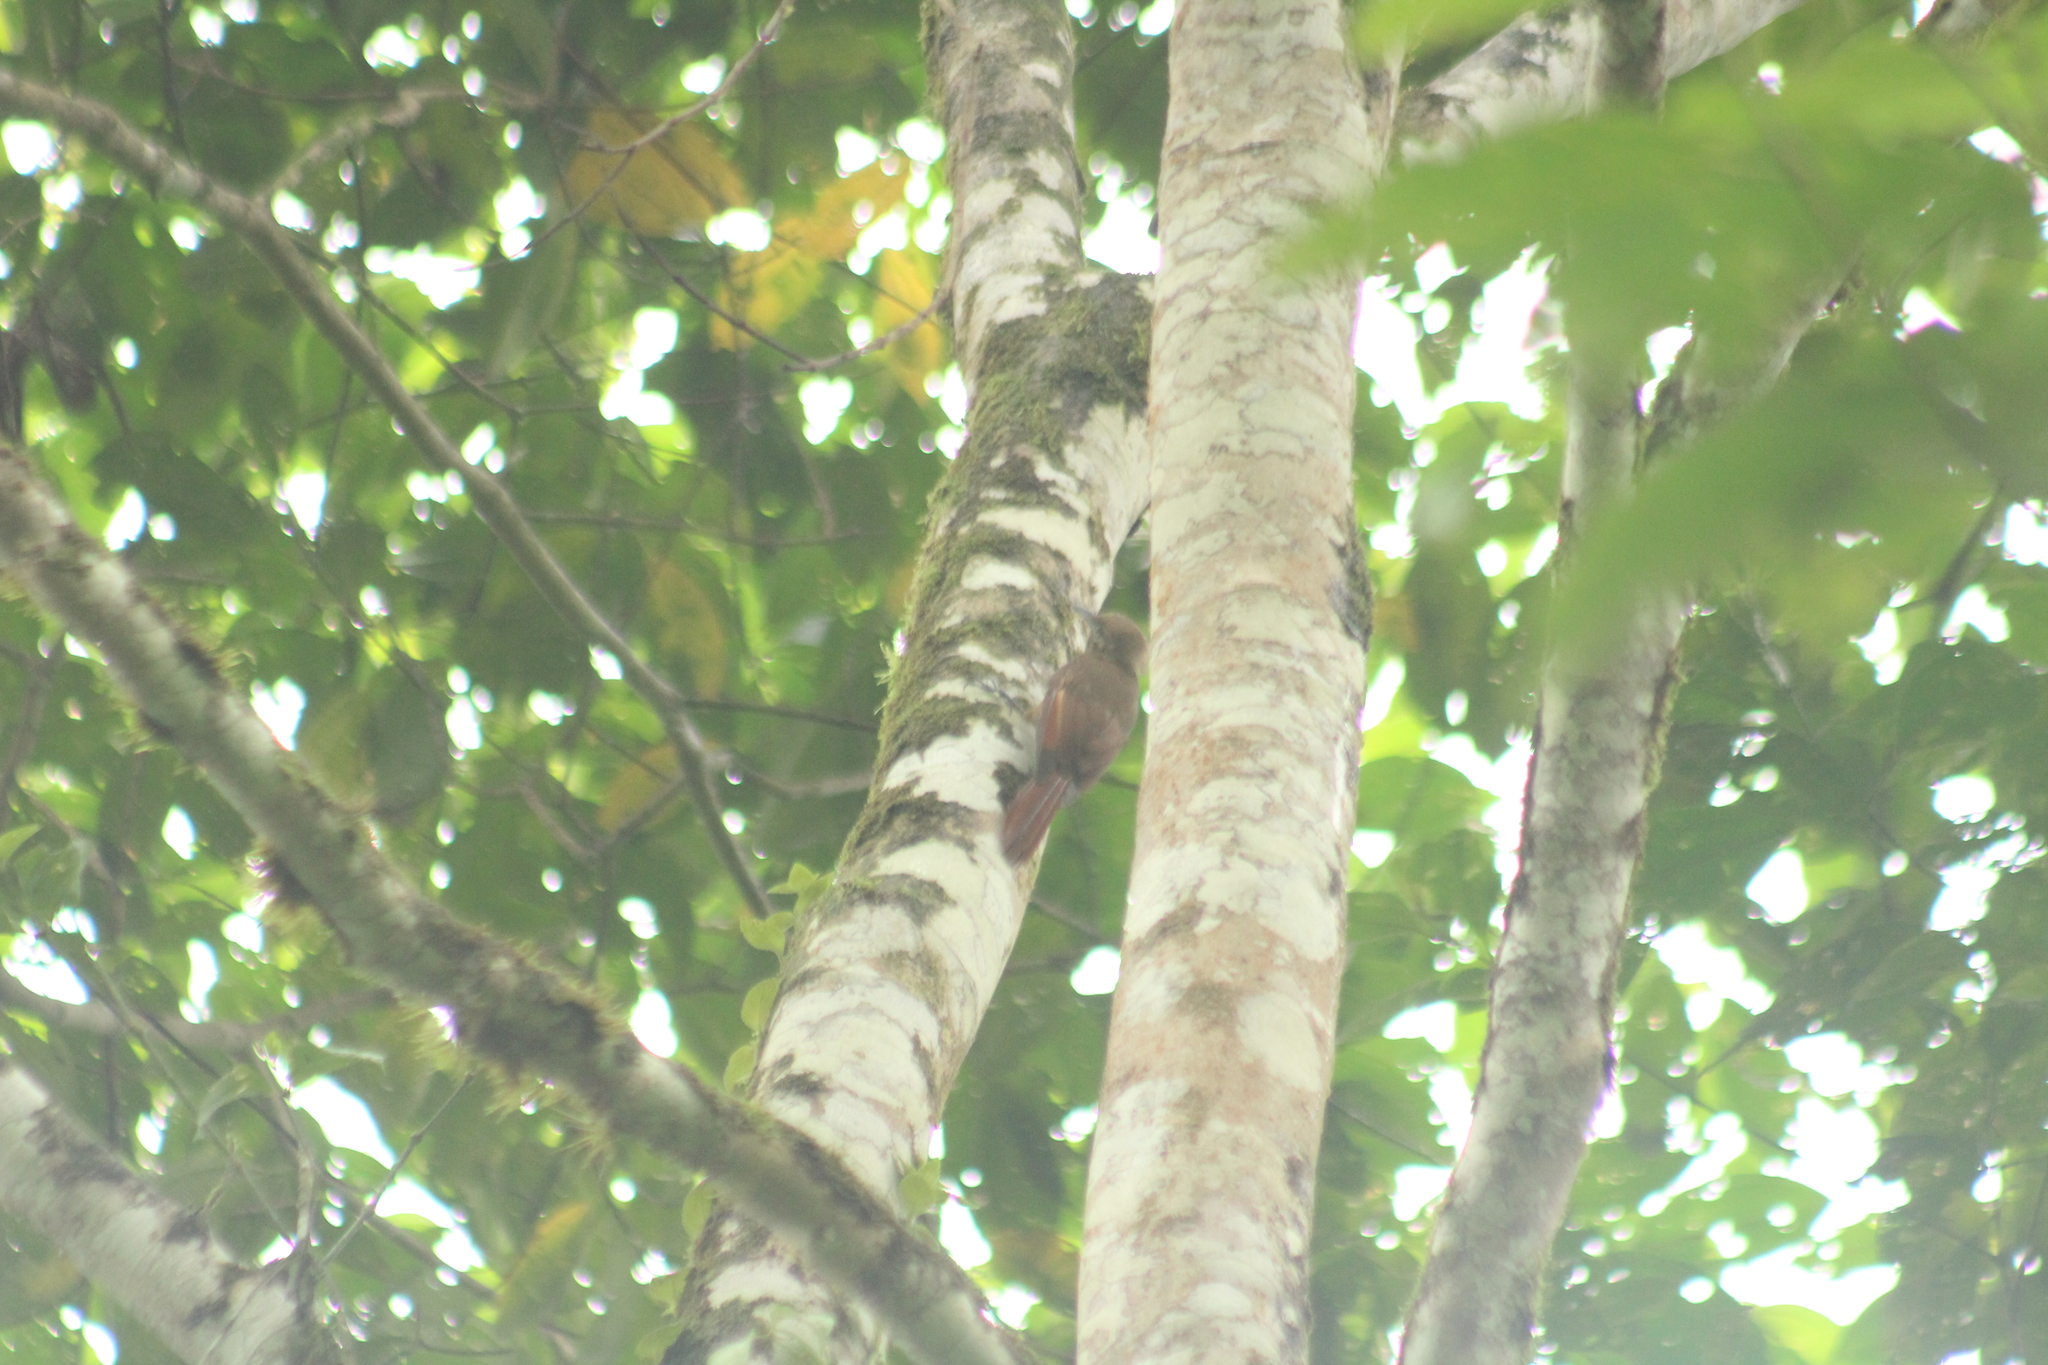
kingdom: Animalia
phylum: Chordata
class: Aves
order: Passeriformes
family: Furnariidae
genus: Dendrocincla
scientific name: Dendrocincla fuliginosa
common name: Plain-brown woodcreeper
